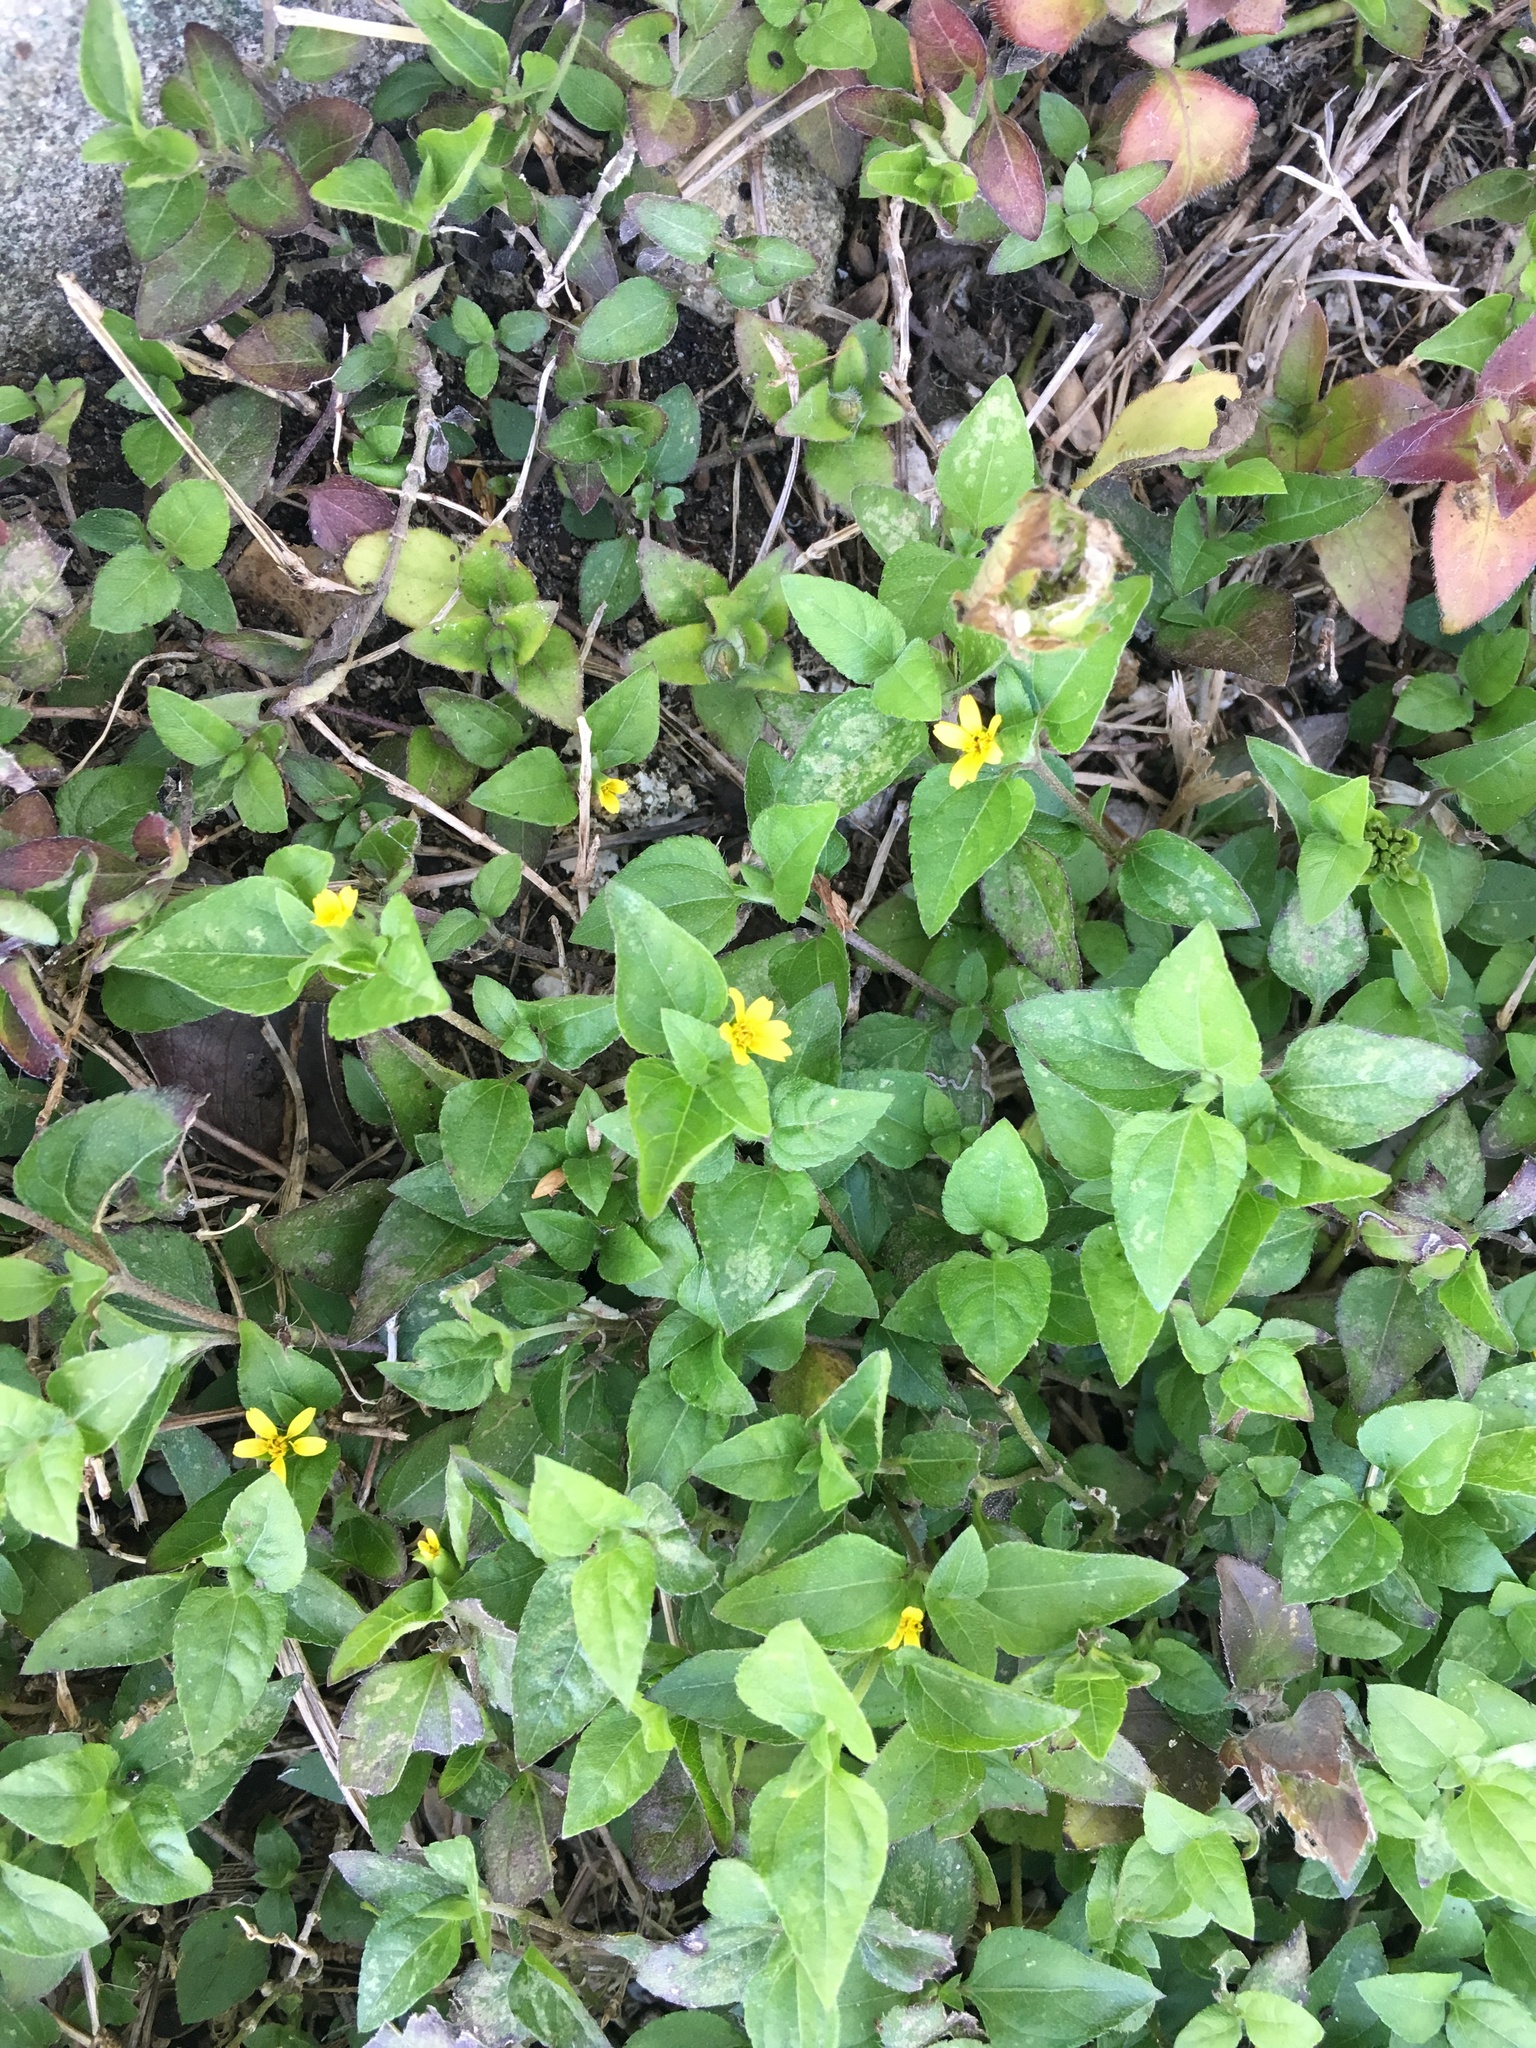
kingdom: Plantae
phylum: Tracheophyta
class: Magnoliopsida
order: Asterales
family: Asteraceae
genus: Calyptocarpus
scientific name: Calyptocarpus vialis
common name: Straggler daisy
